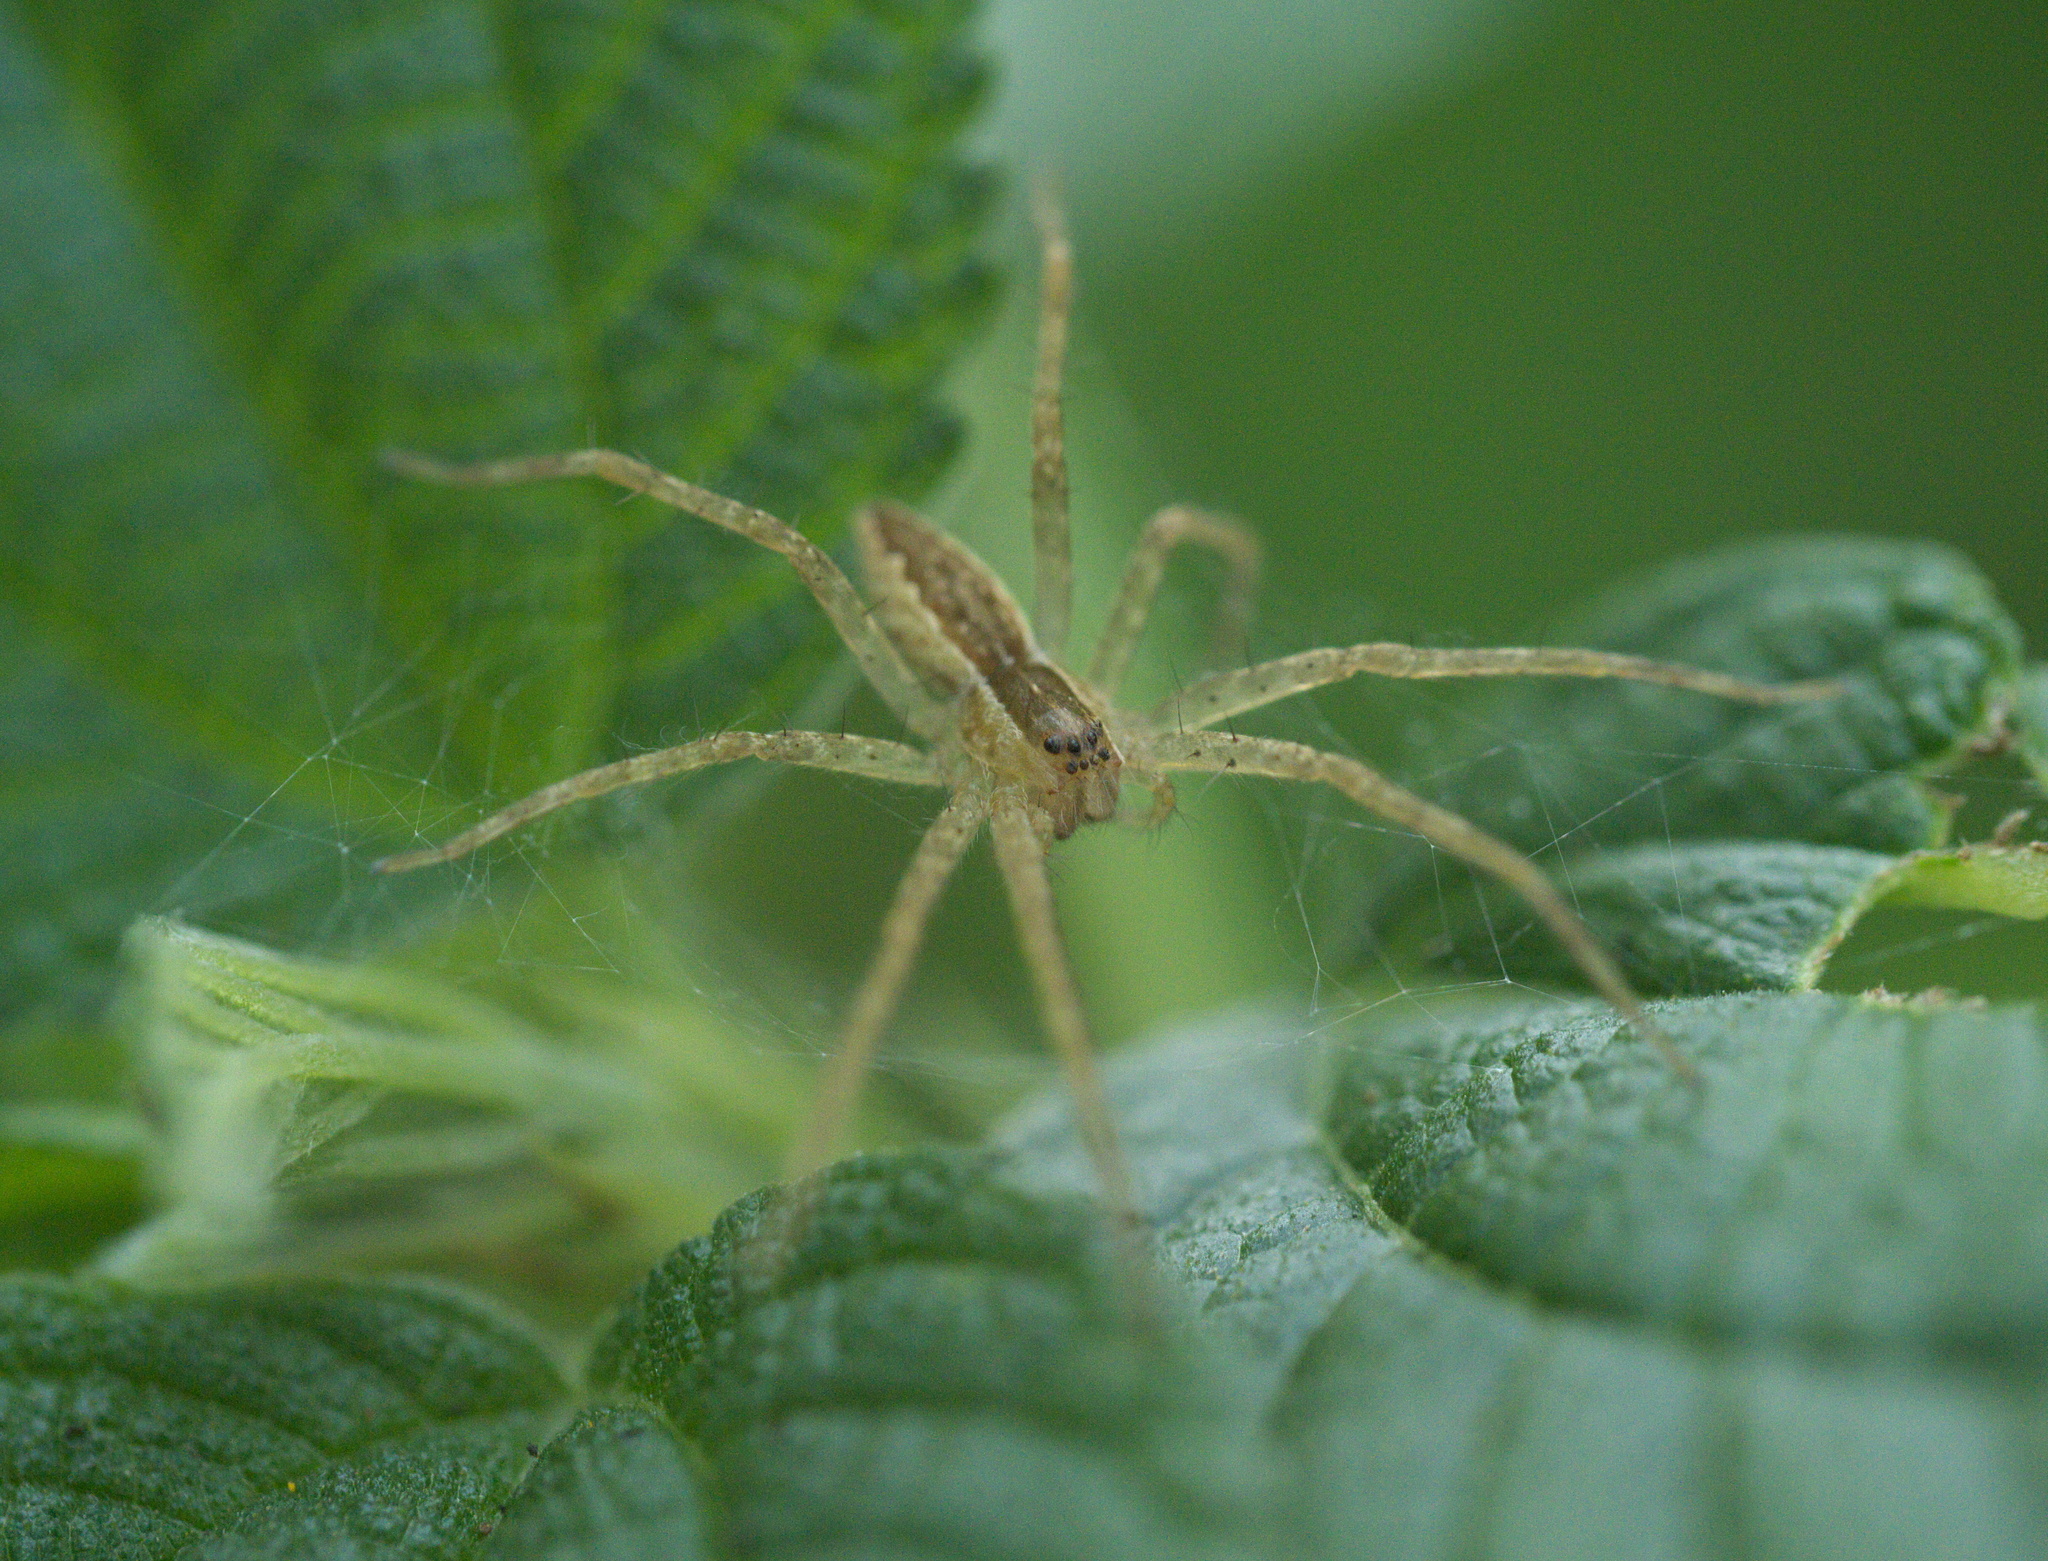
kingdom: Animalia
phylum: Arthropoda
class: Arachnida
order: Araneae
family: Pisauridae
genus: Pisaurina
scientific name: Pisaurina mira
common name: American nursery web spider
